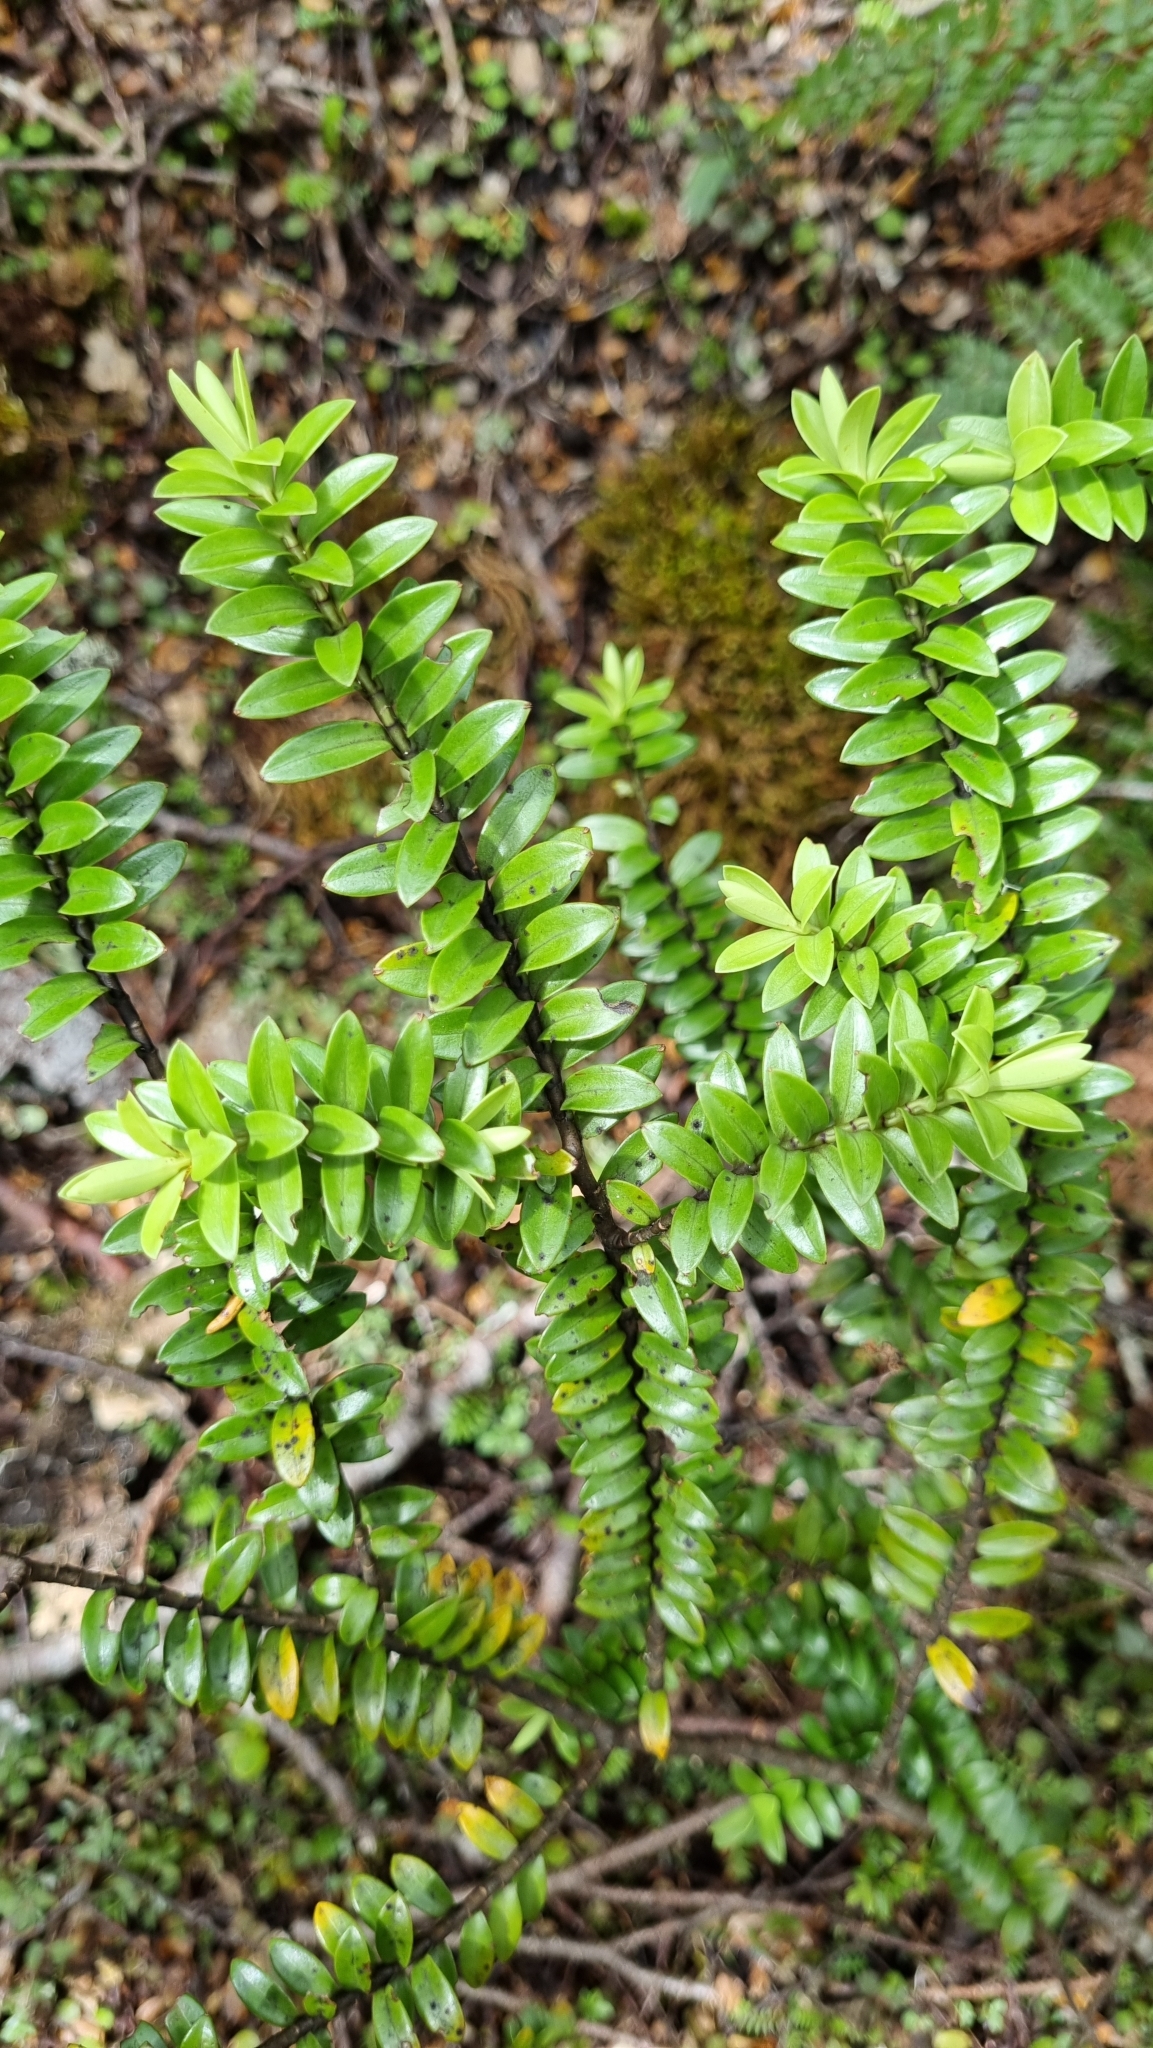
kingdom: Plantae
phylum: Tracheophyta
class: Magnoliopsida
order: Lamiales
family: Plantaginaceae
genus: Veronica
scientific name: Veronica vernicosa
